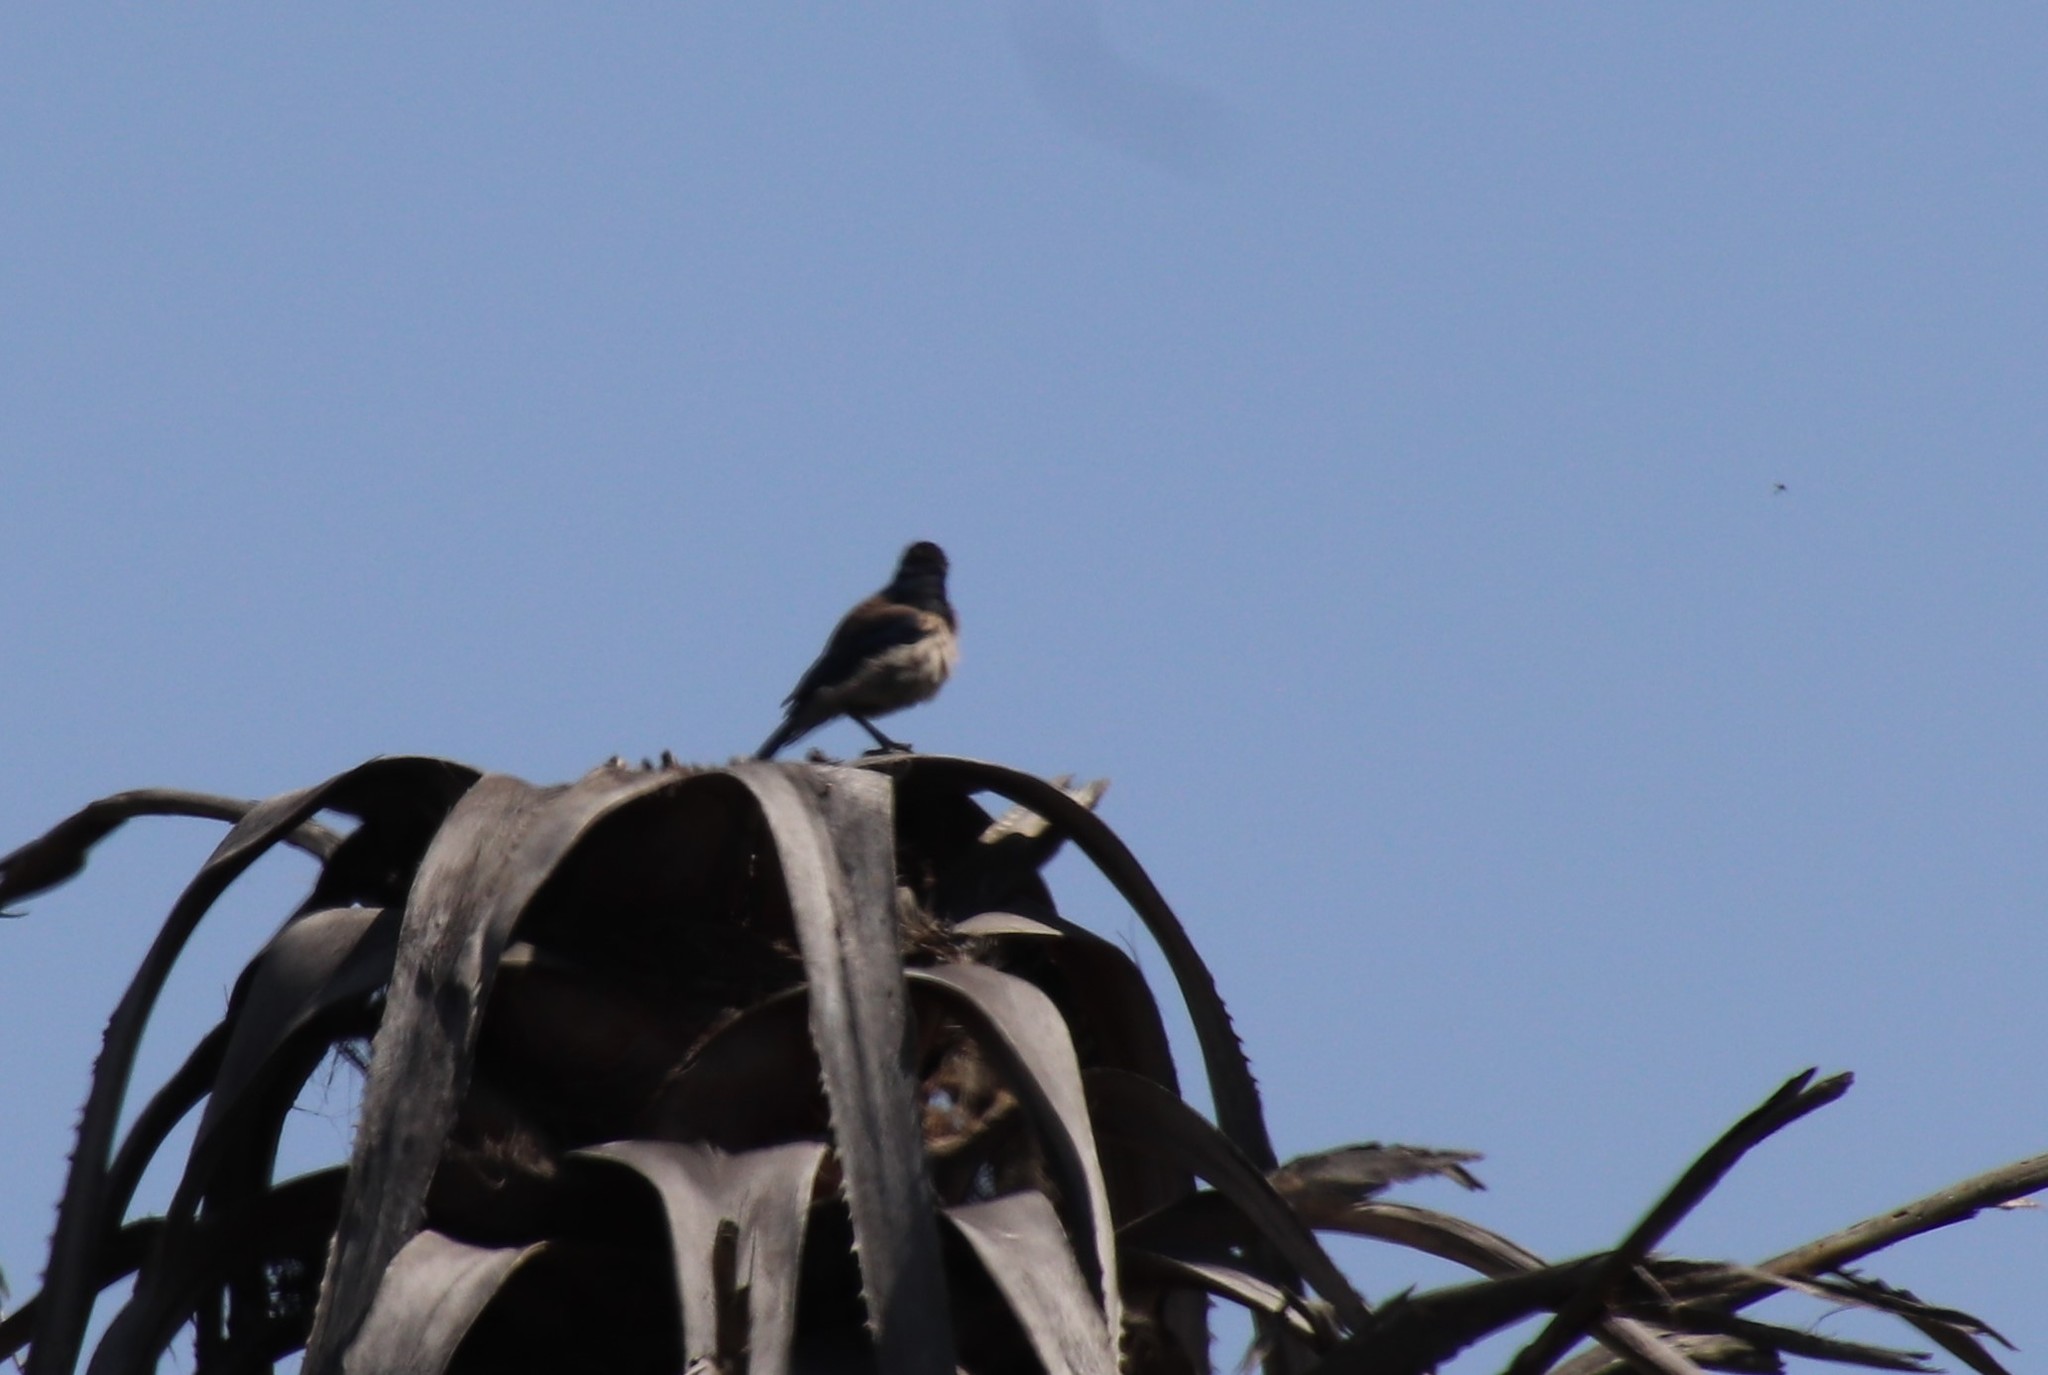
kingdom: Animalia
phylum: Chordata
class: Aves
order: Passeriformes
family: Corvidae
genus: Aphelocoma
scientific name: Aphelocoma californica
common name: California scrub-jay
